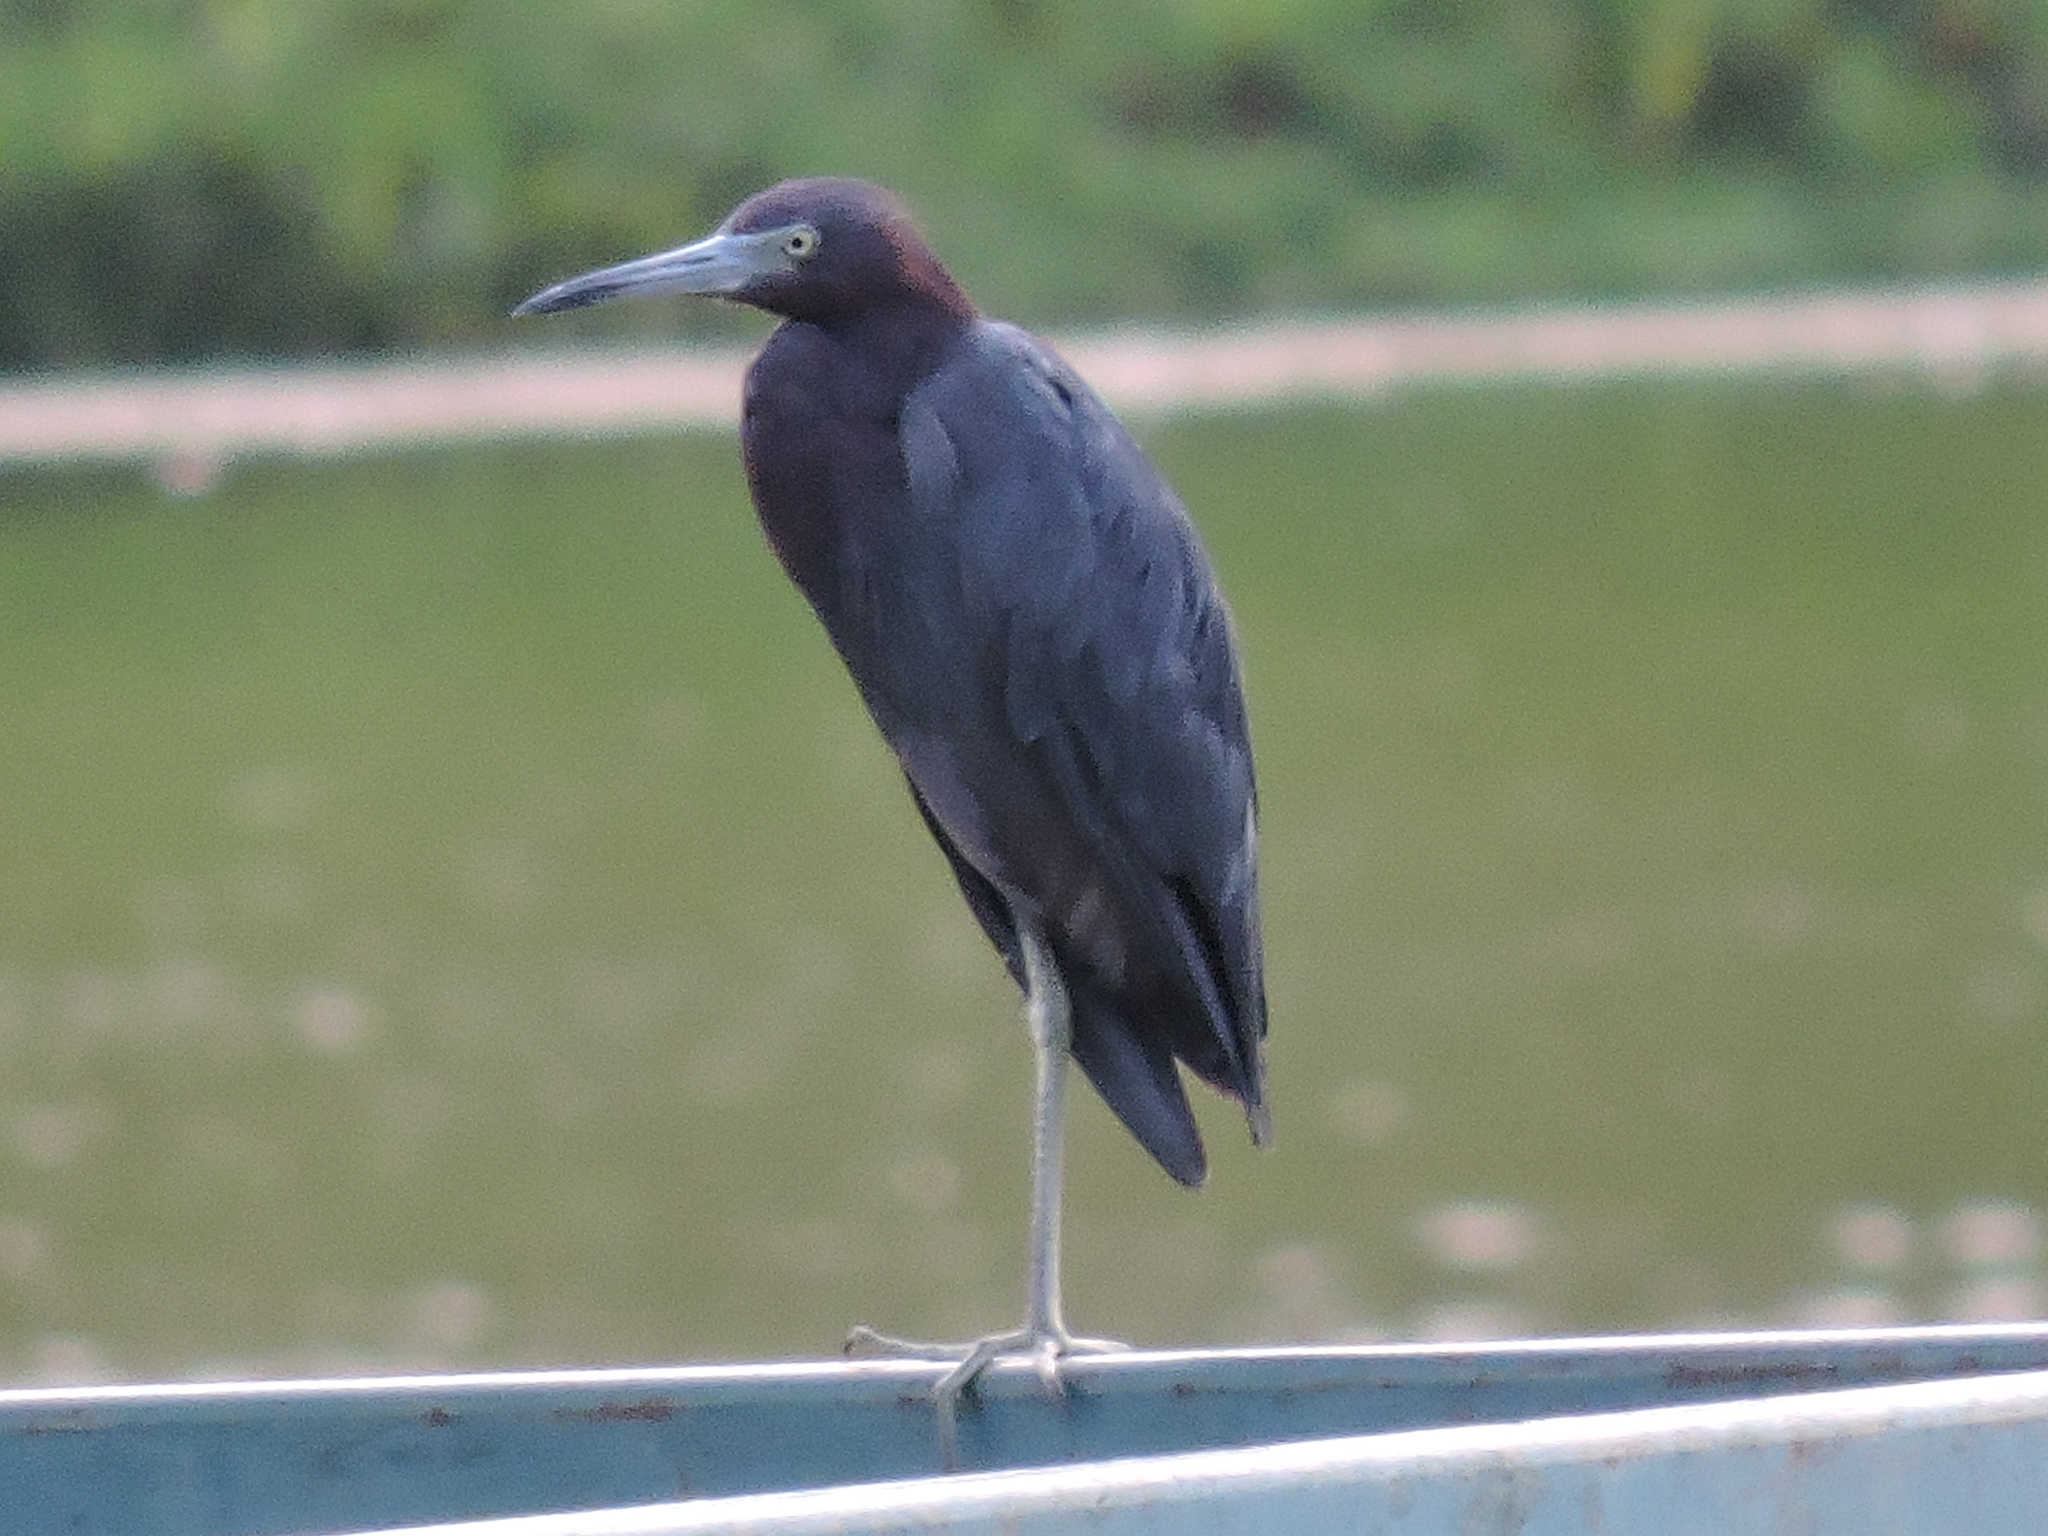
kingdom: Animalia
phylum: Chordata
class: Aves
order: Pelecaniformes
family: Ardeidae
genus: Egretta
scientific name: Egretta caerulea
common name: Little blue heron
